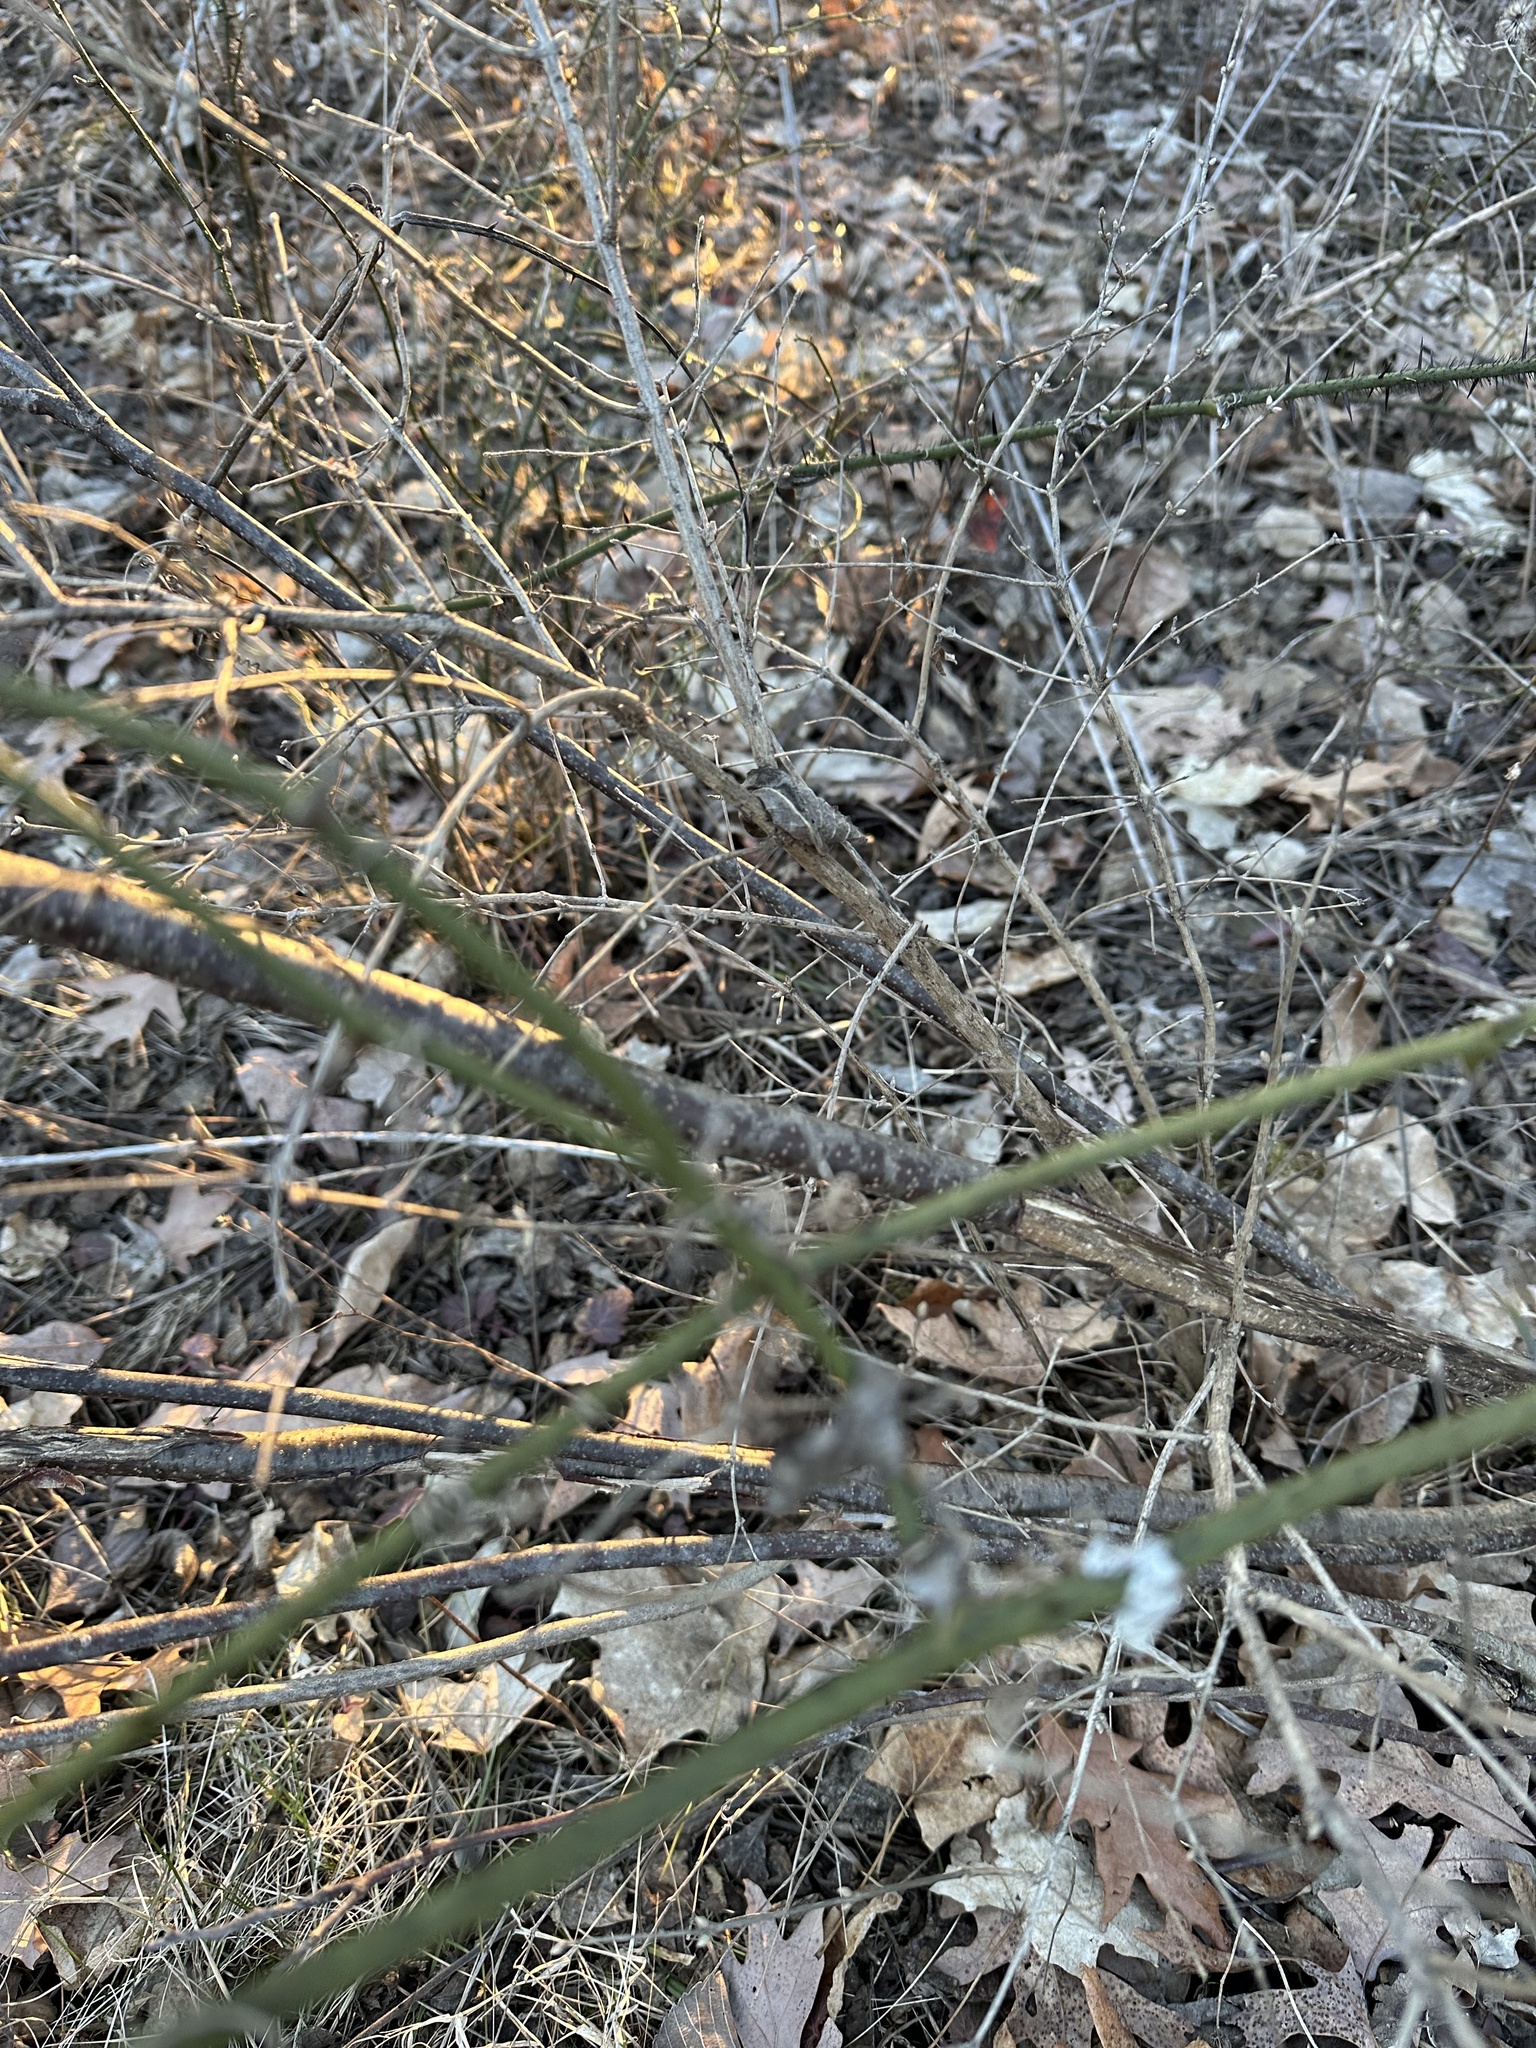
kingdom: Plantae
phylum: Tracheophyta
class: Liliopsida
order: Liliales
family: Smilacaceae
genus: Smilax
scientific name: Smilax tamnoides
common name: Hellfetter
